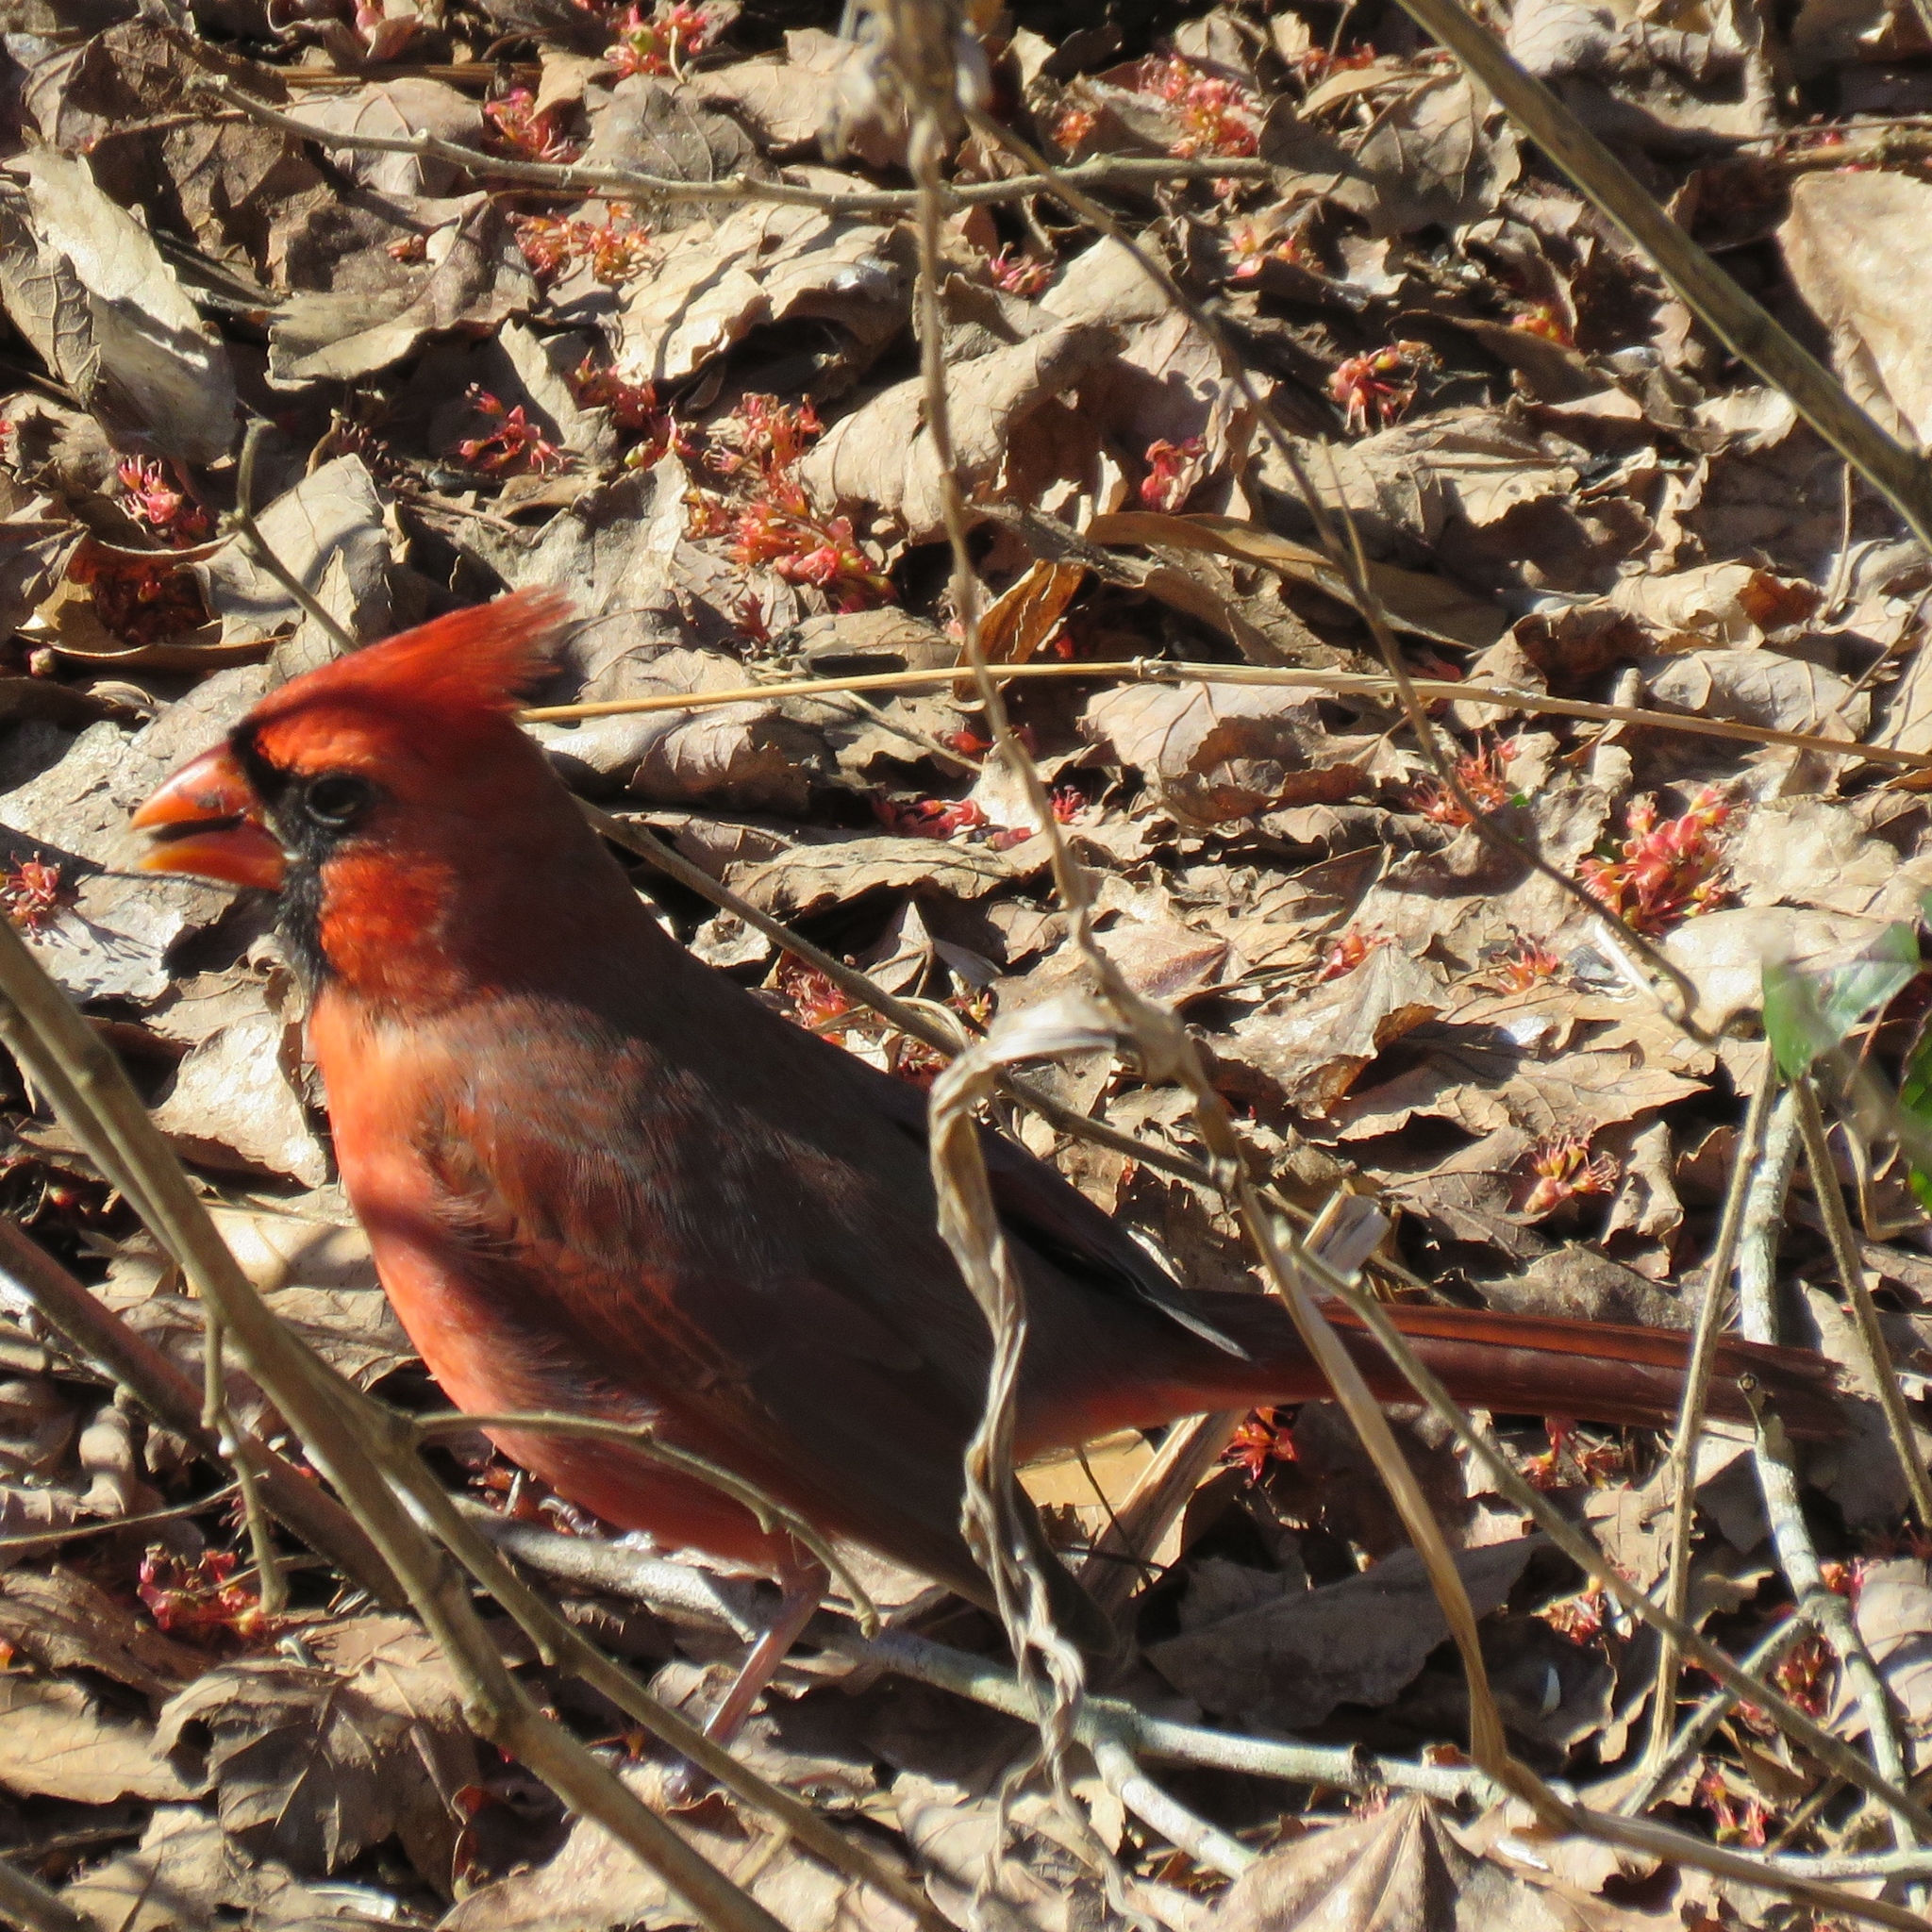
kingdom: Animalia
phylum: Chordata
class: Aves
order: Passeriformes
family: Cardinalidae
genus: Cardinalis
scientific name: Cardinalis cardinalis
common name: Northern cardinal
